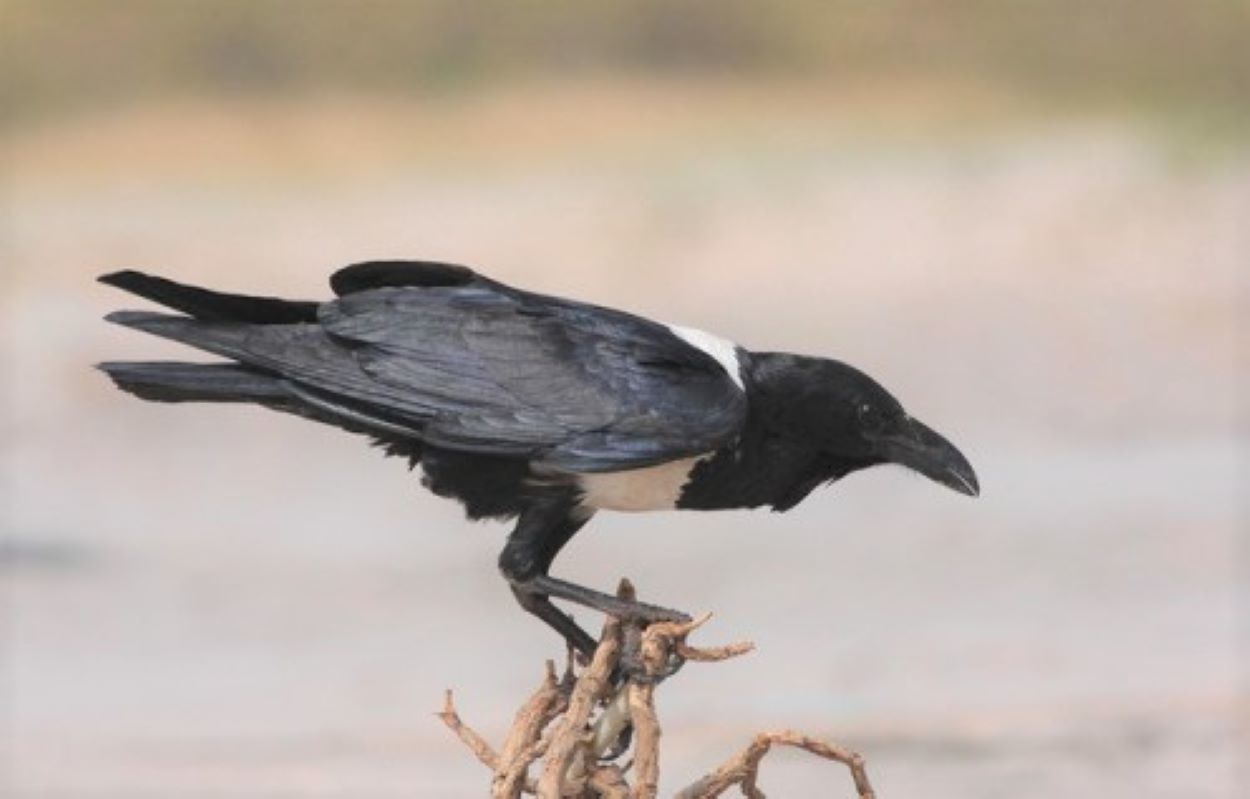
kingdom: Animalia
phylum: Chordata
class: Aves
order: Passeriformes
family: Corvidae
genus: Corvus
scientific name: Corvus albus
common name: Pied crow
